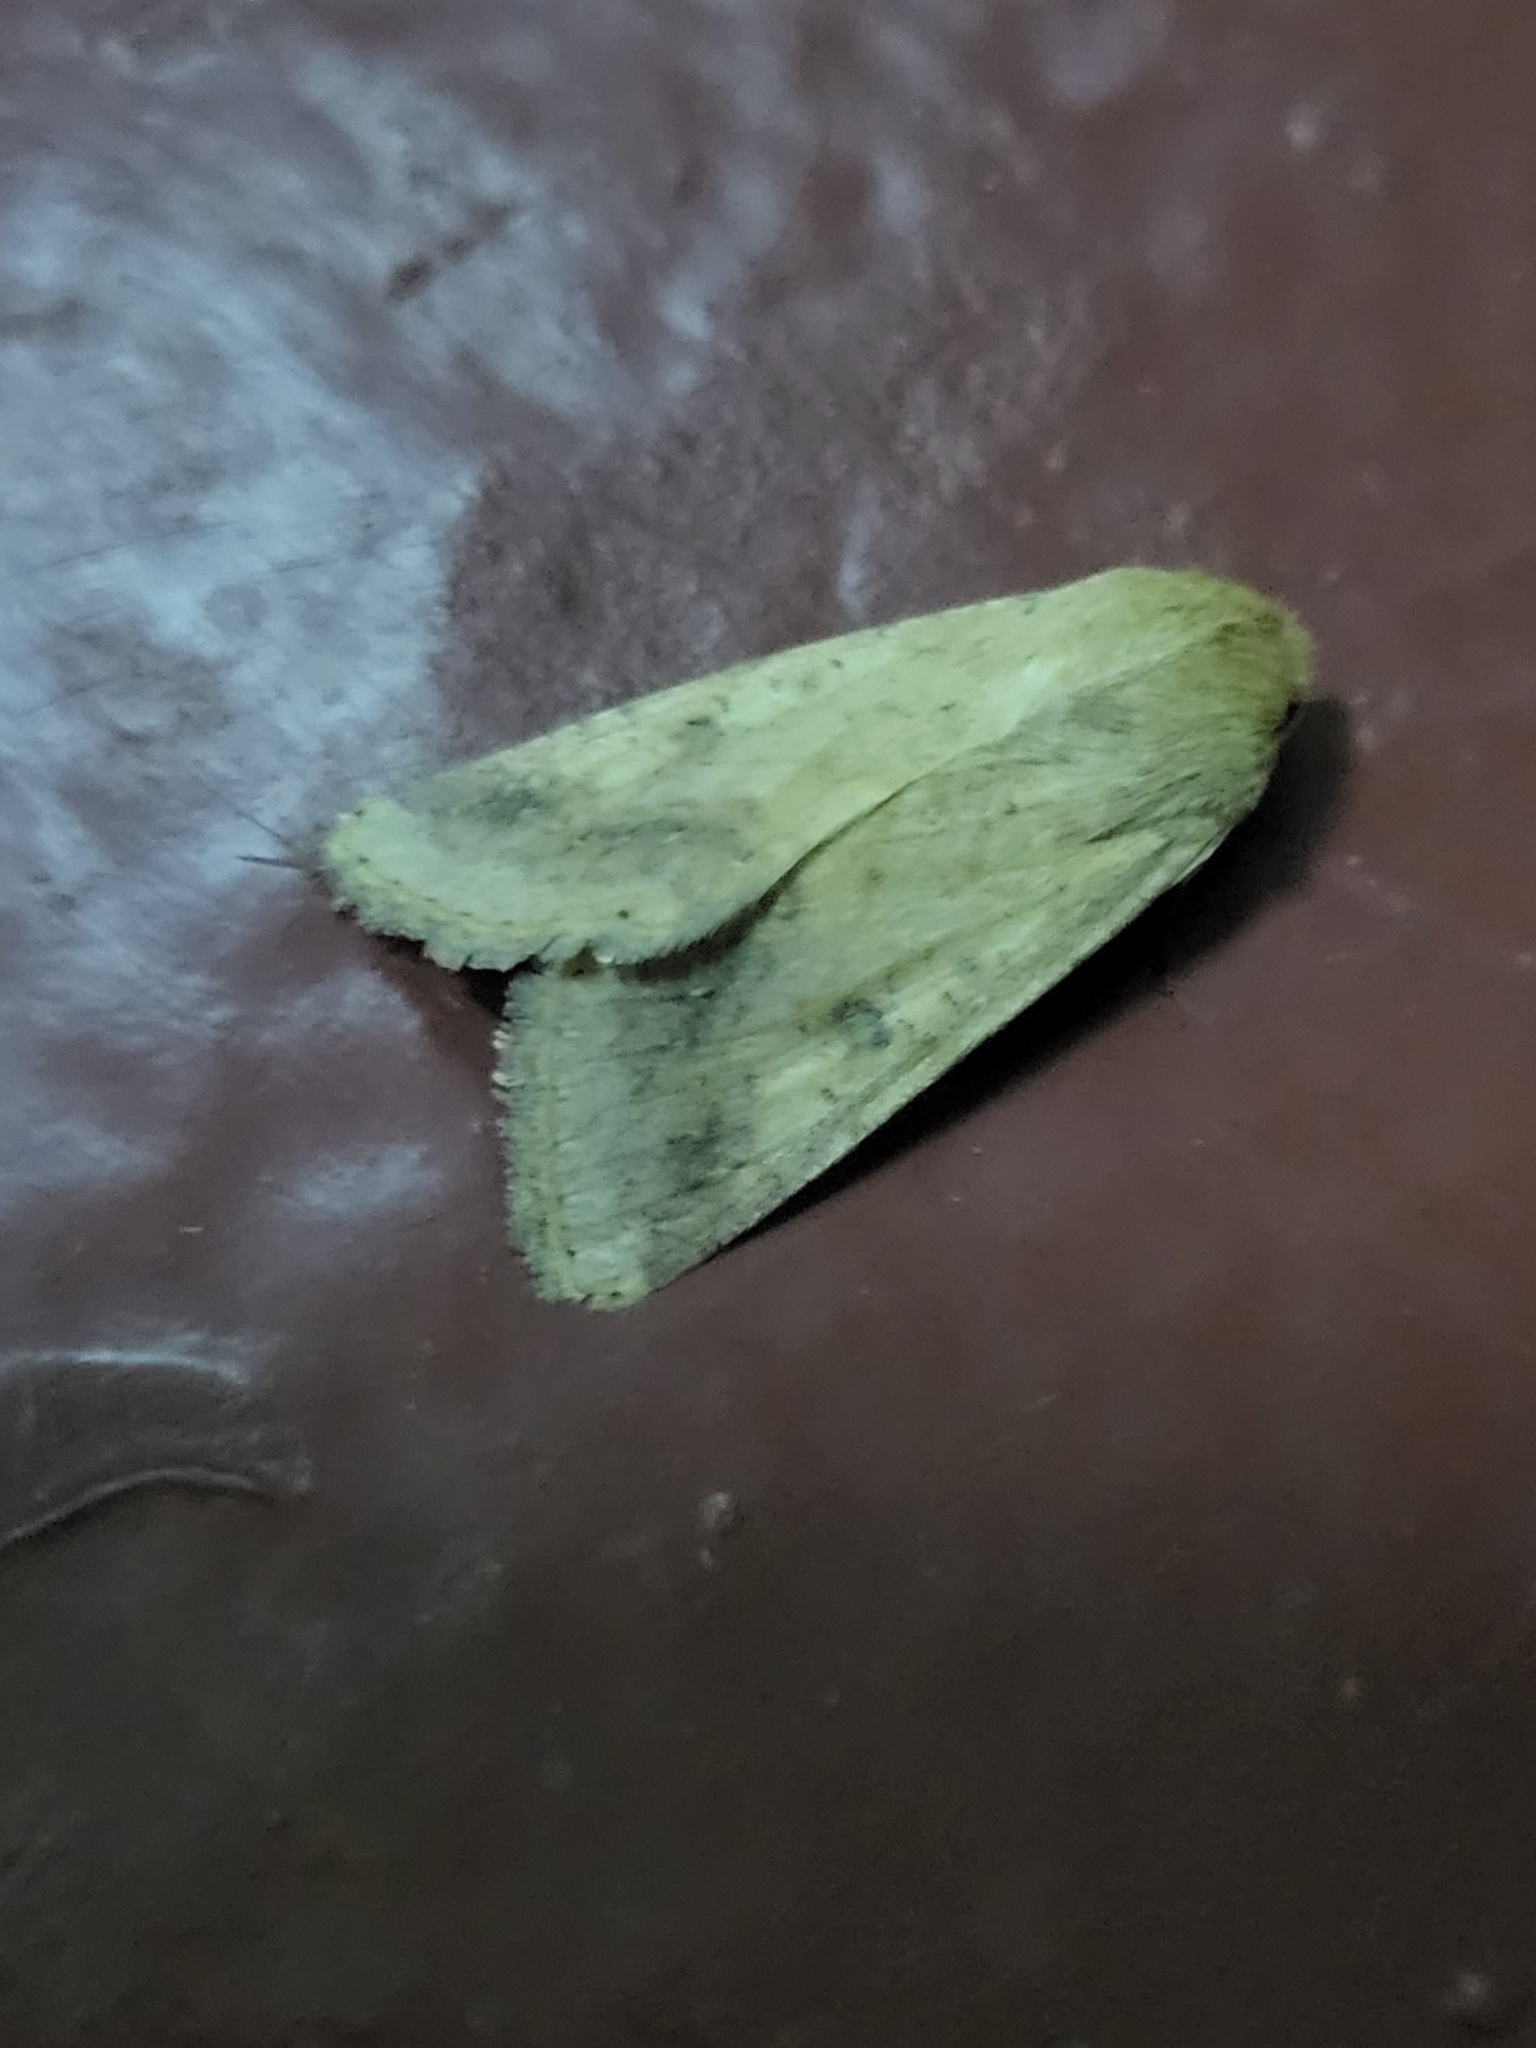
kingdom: Animalia
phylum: Arthropoda
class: Insecta
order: Lepidoptera
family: Noctuidae
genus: Helicoverpa
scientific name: Helicoverpa armigera
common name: Cotton bollworm
